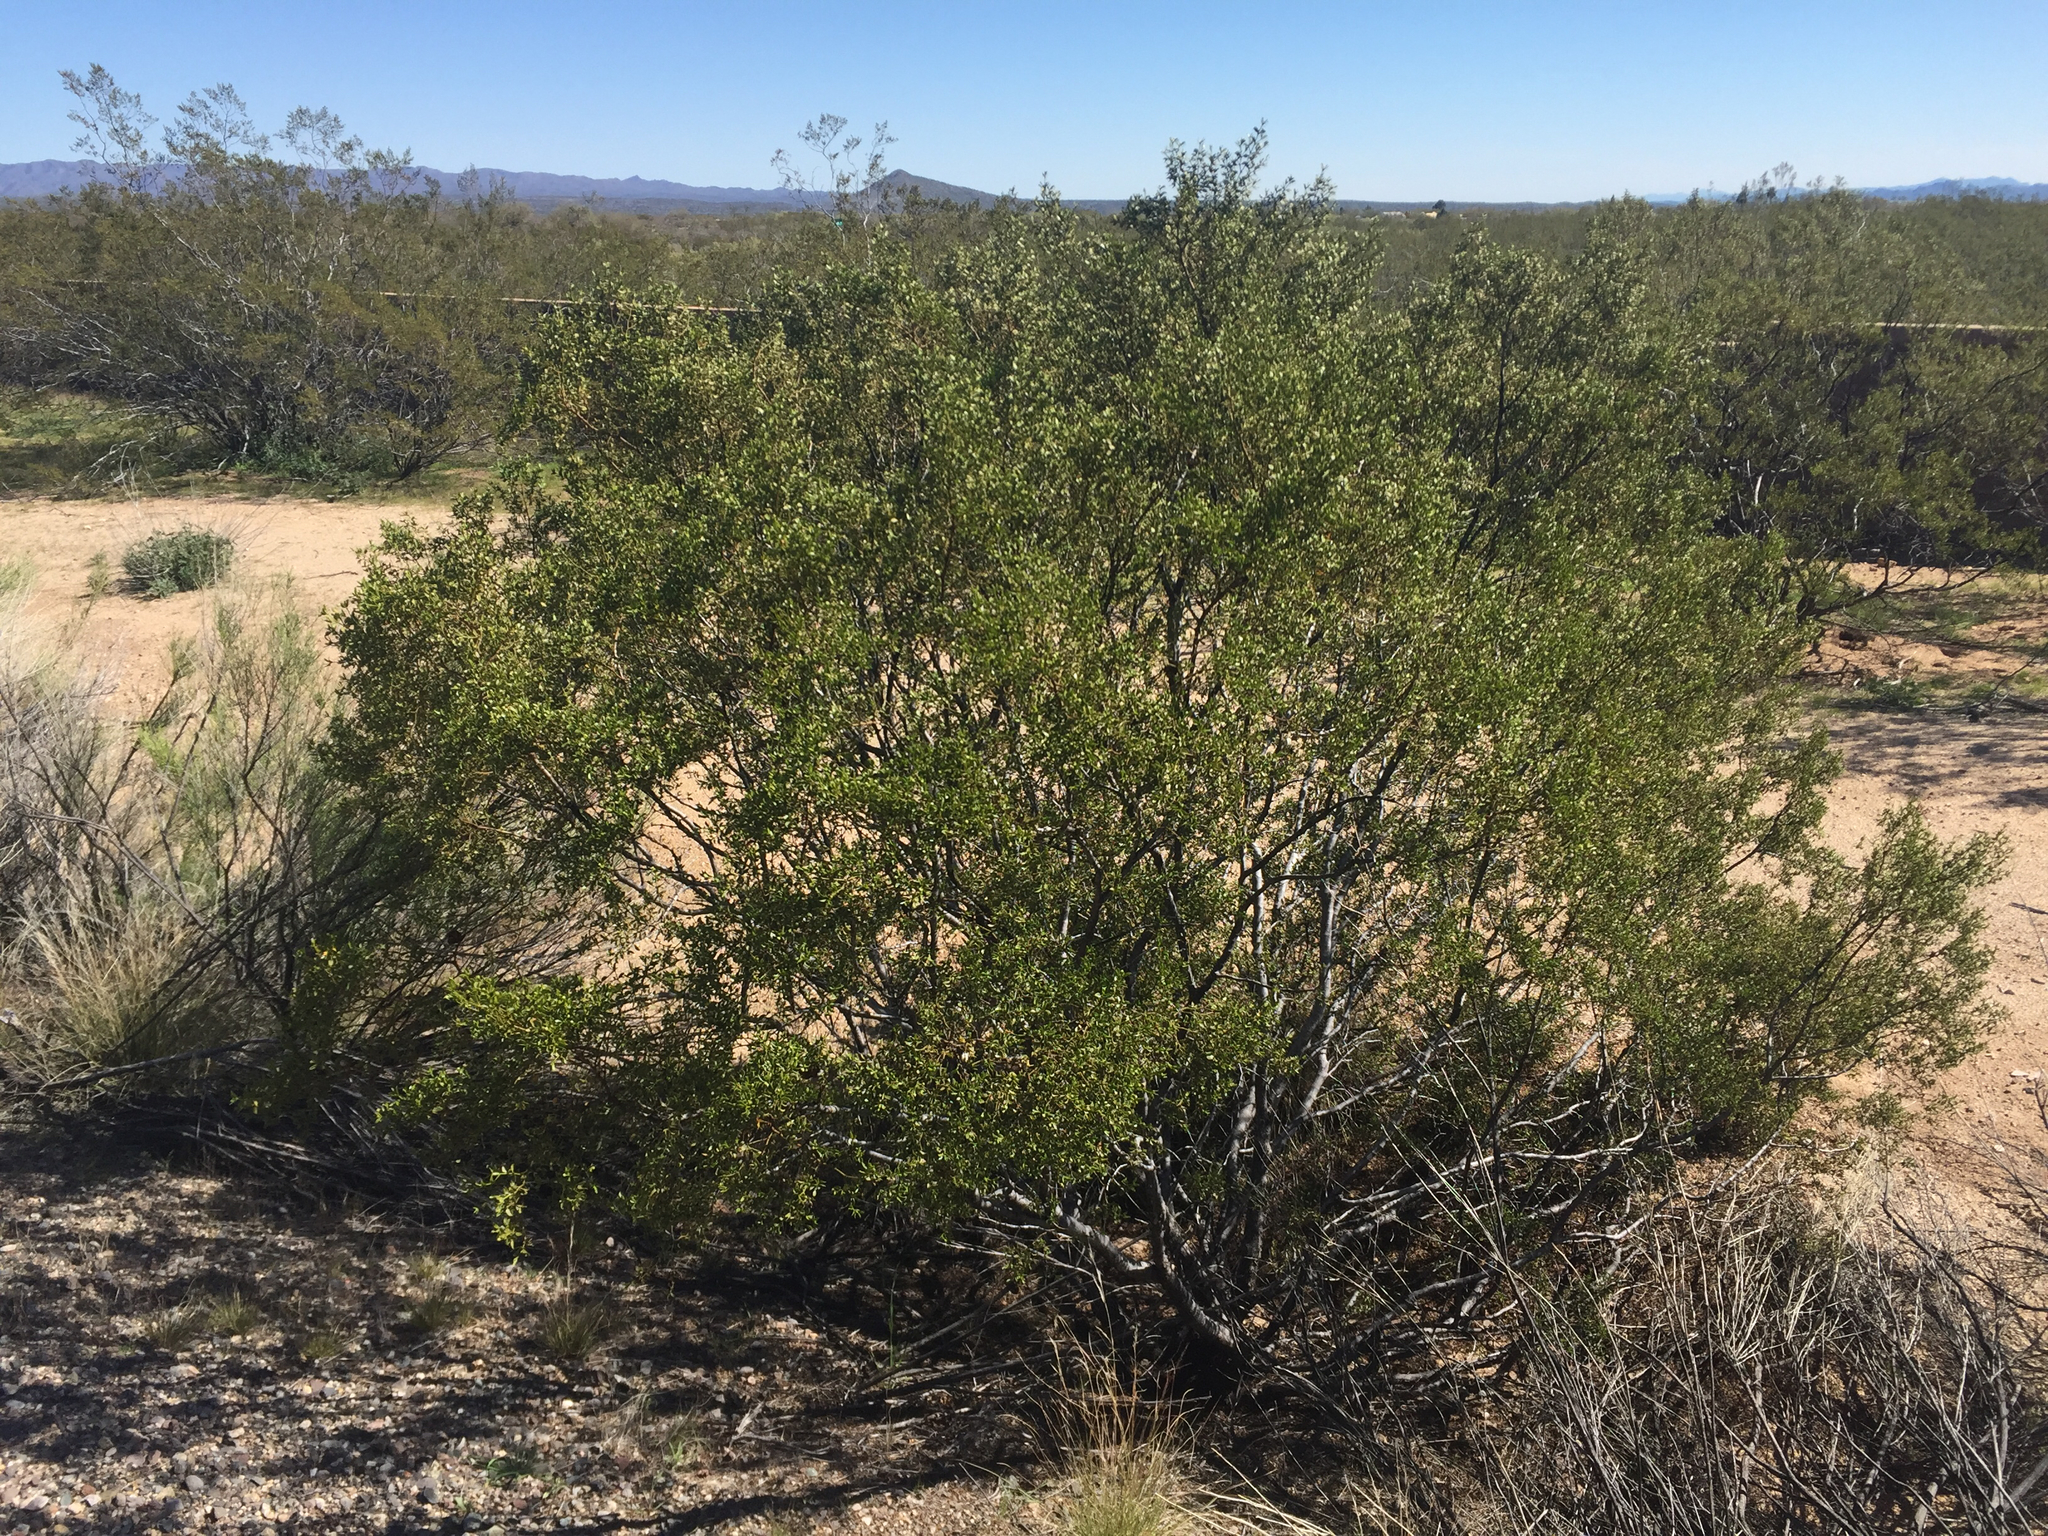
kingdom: Plantae
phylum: Tracheophyta
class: Magnoliopsida
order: Zygophyllales
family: Zygophyllaceae
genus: Larrea
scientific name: Larrea tridentata
